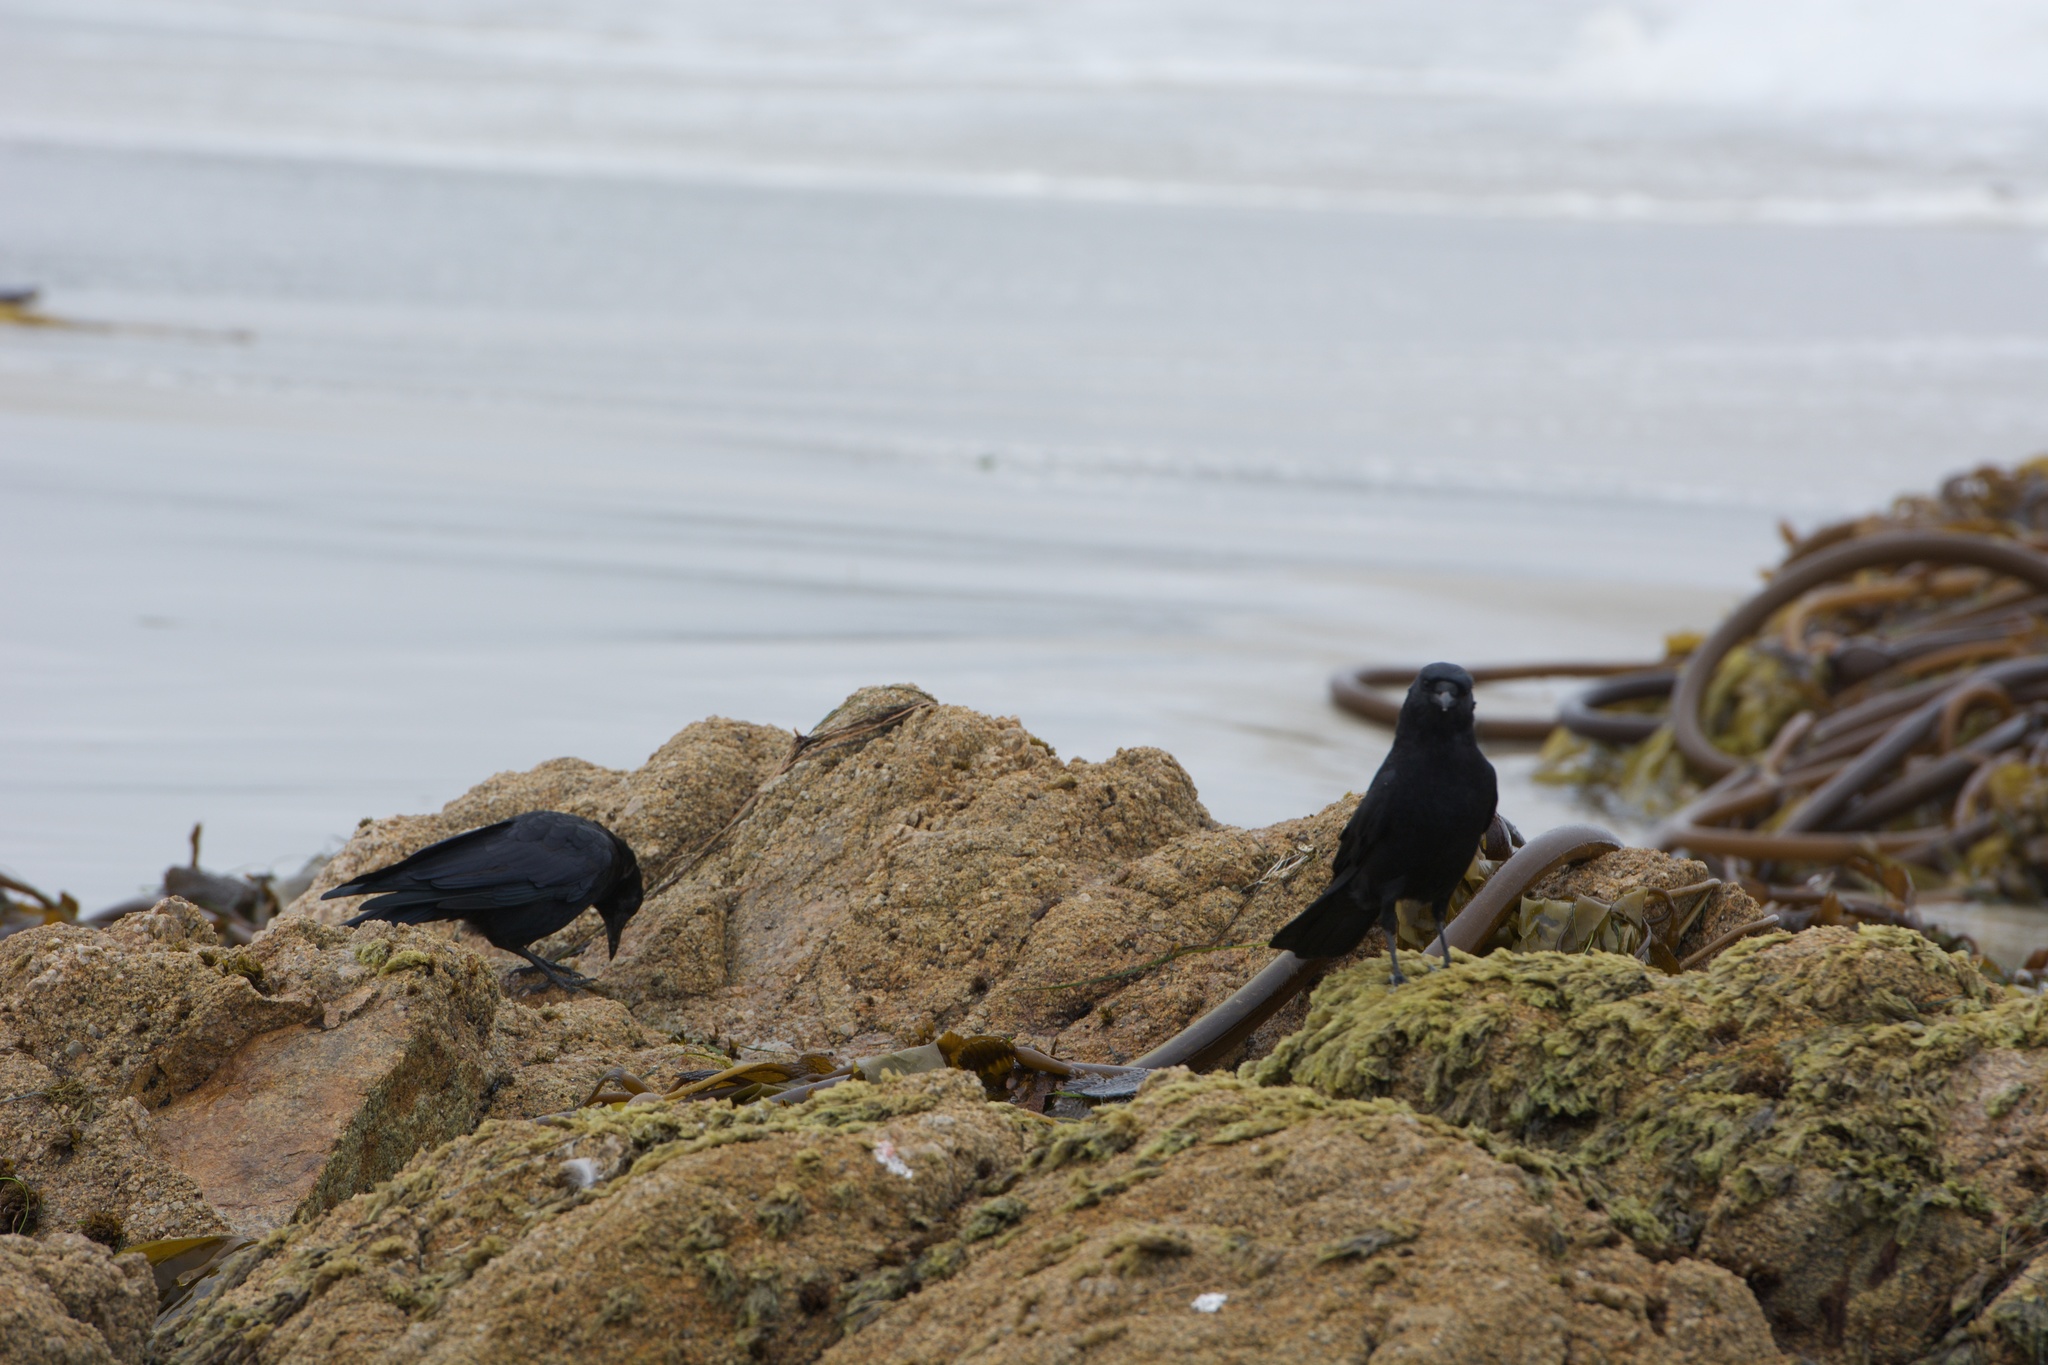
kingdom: Animalia
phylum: Chordata
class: Aves
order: Passeriformes
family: Corvidae
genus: Corvus
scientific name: Corvus brachyrhynchos
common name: American crow
